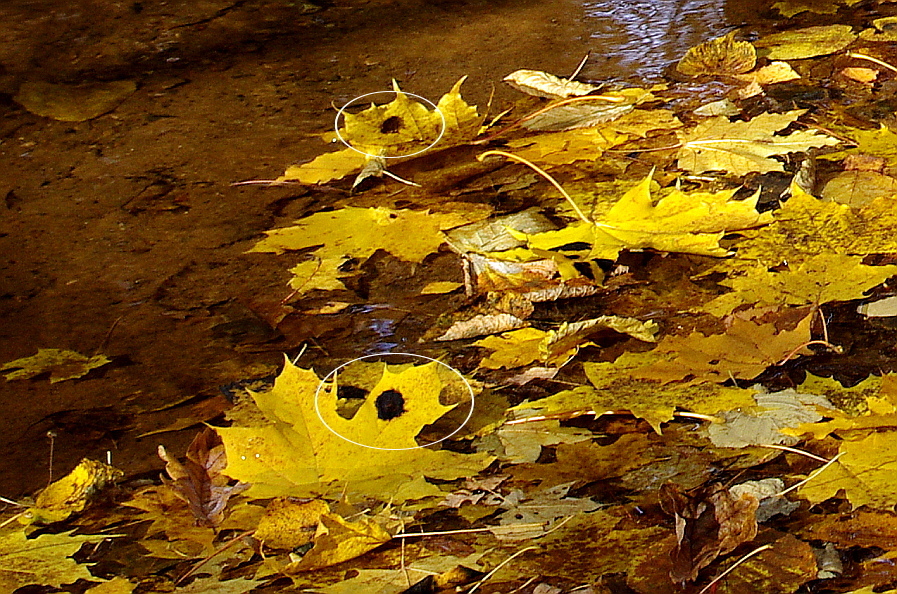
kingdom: Fungi
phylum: Ascomycota
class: Leotiomycetes
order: Rhytismatales
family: Rhytismataceae
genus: Rhytisma
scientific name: Rhytisma acerinum
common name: European tar spot
